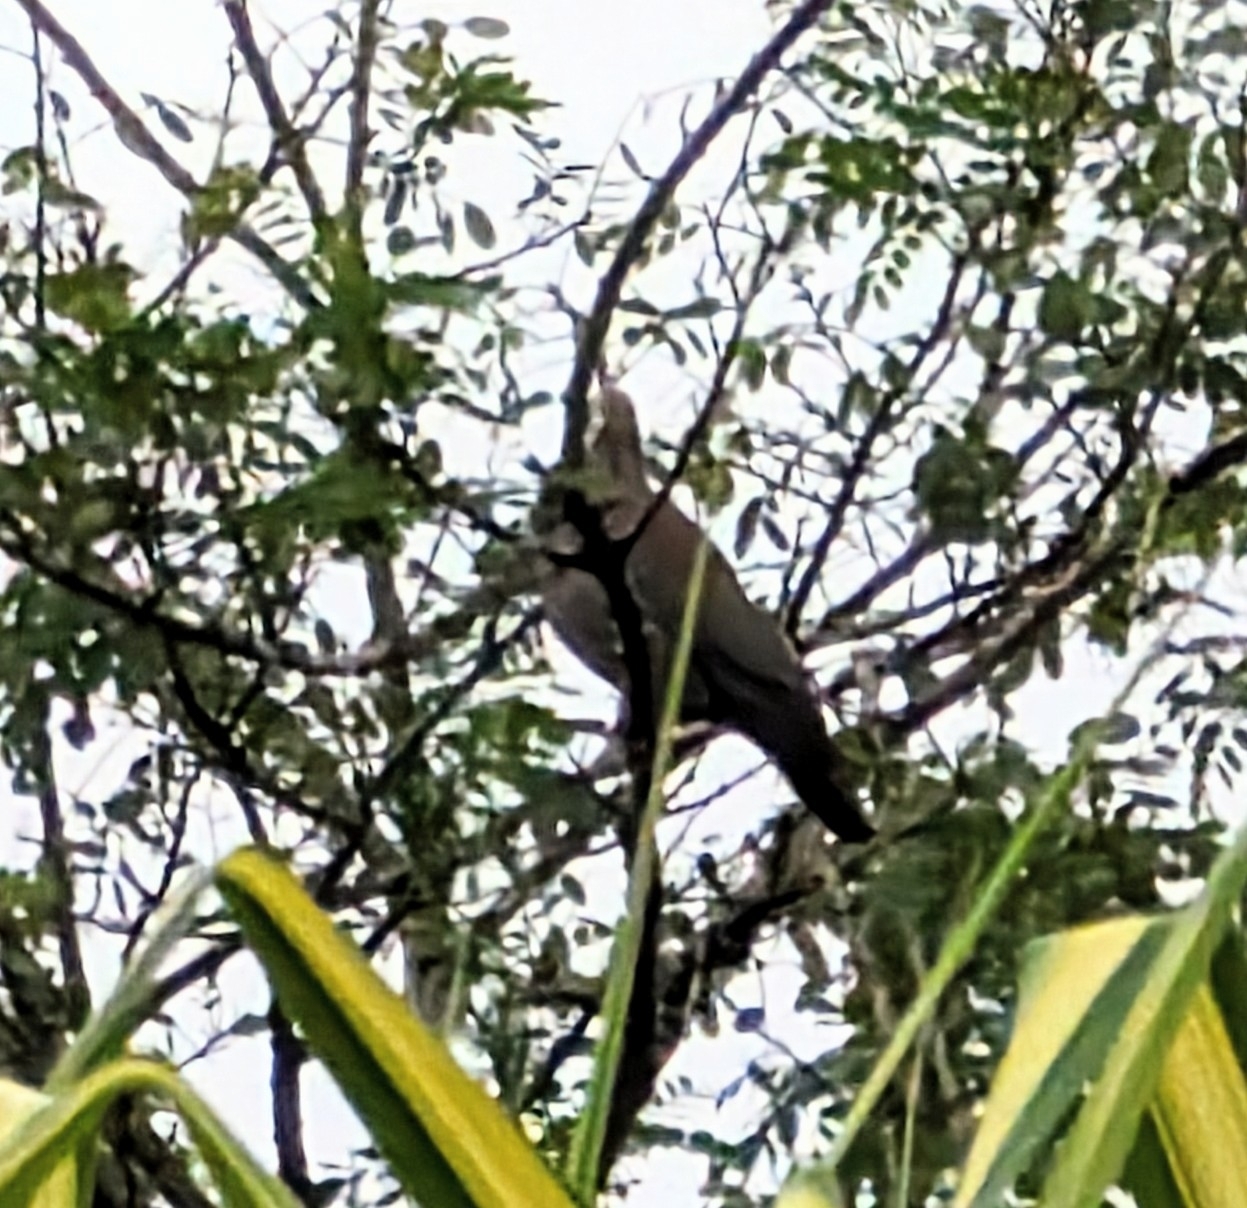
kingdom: Animalia
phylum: Chordata
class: Aves
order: Columbiformes
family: Columbidae
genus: Patagioenas
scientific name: Patagioenas flavirostris
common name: Red-billed pigeon
